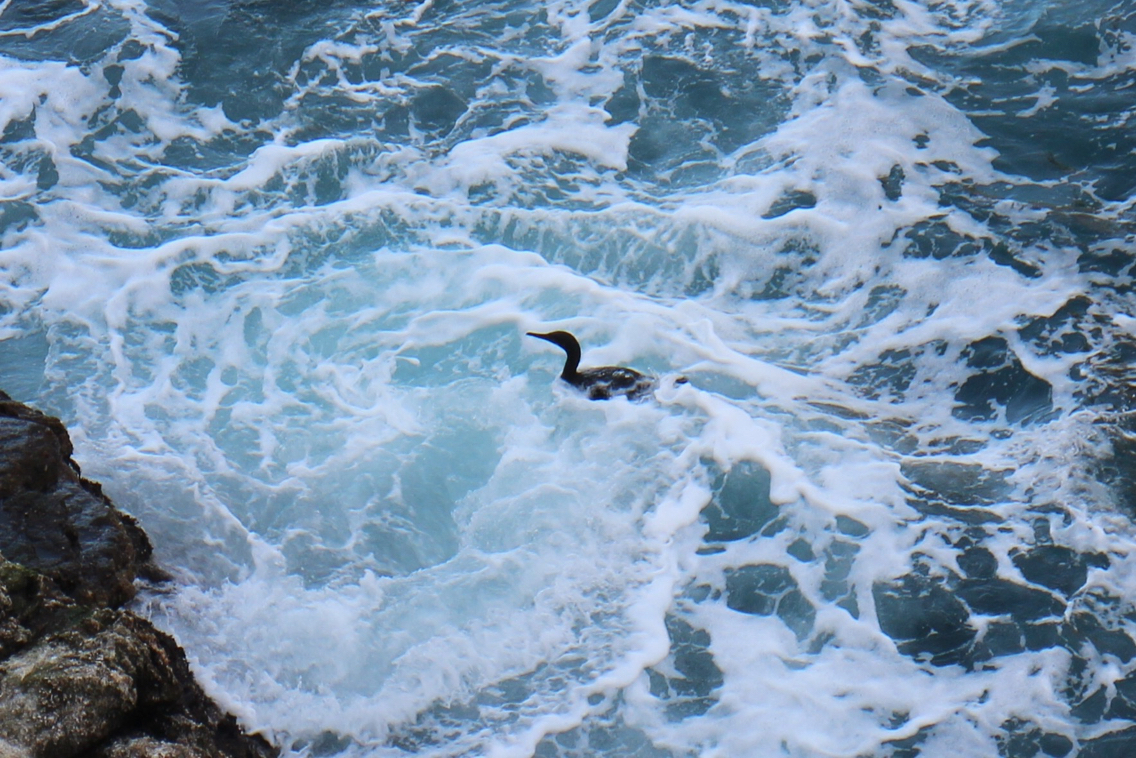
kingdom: Animalia
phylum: Chordata
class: Aves
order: Suliformes
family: Phalacrocoracidae
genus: Urile
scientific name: Urile penicillatus
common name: Brandt's cormorant
